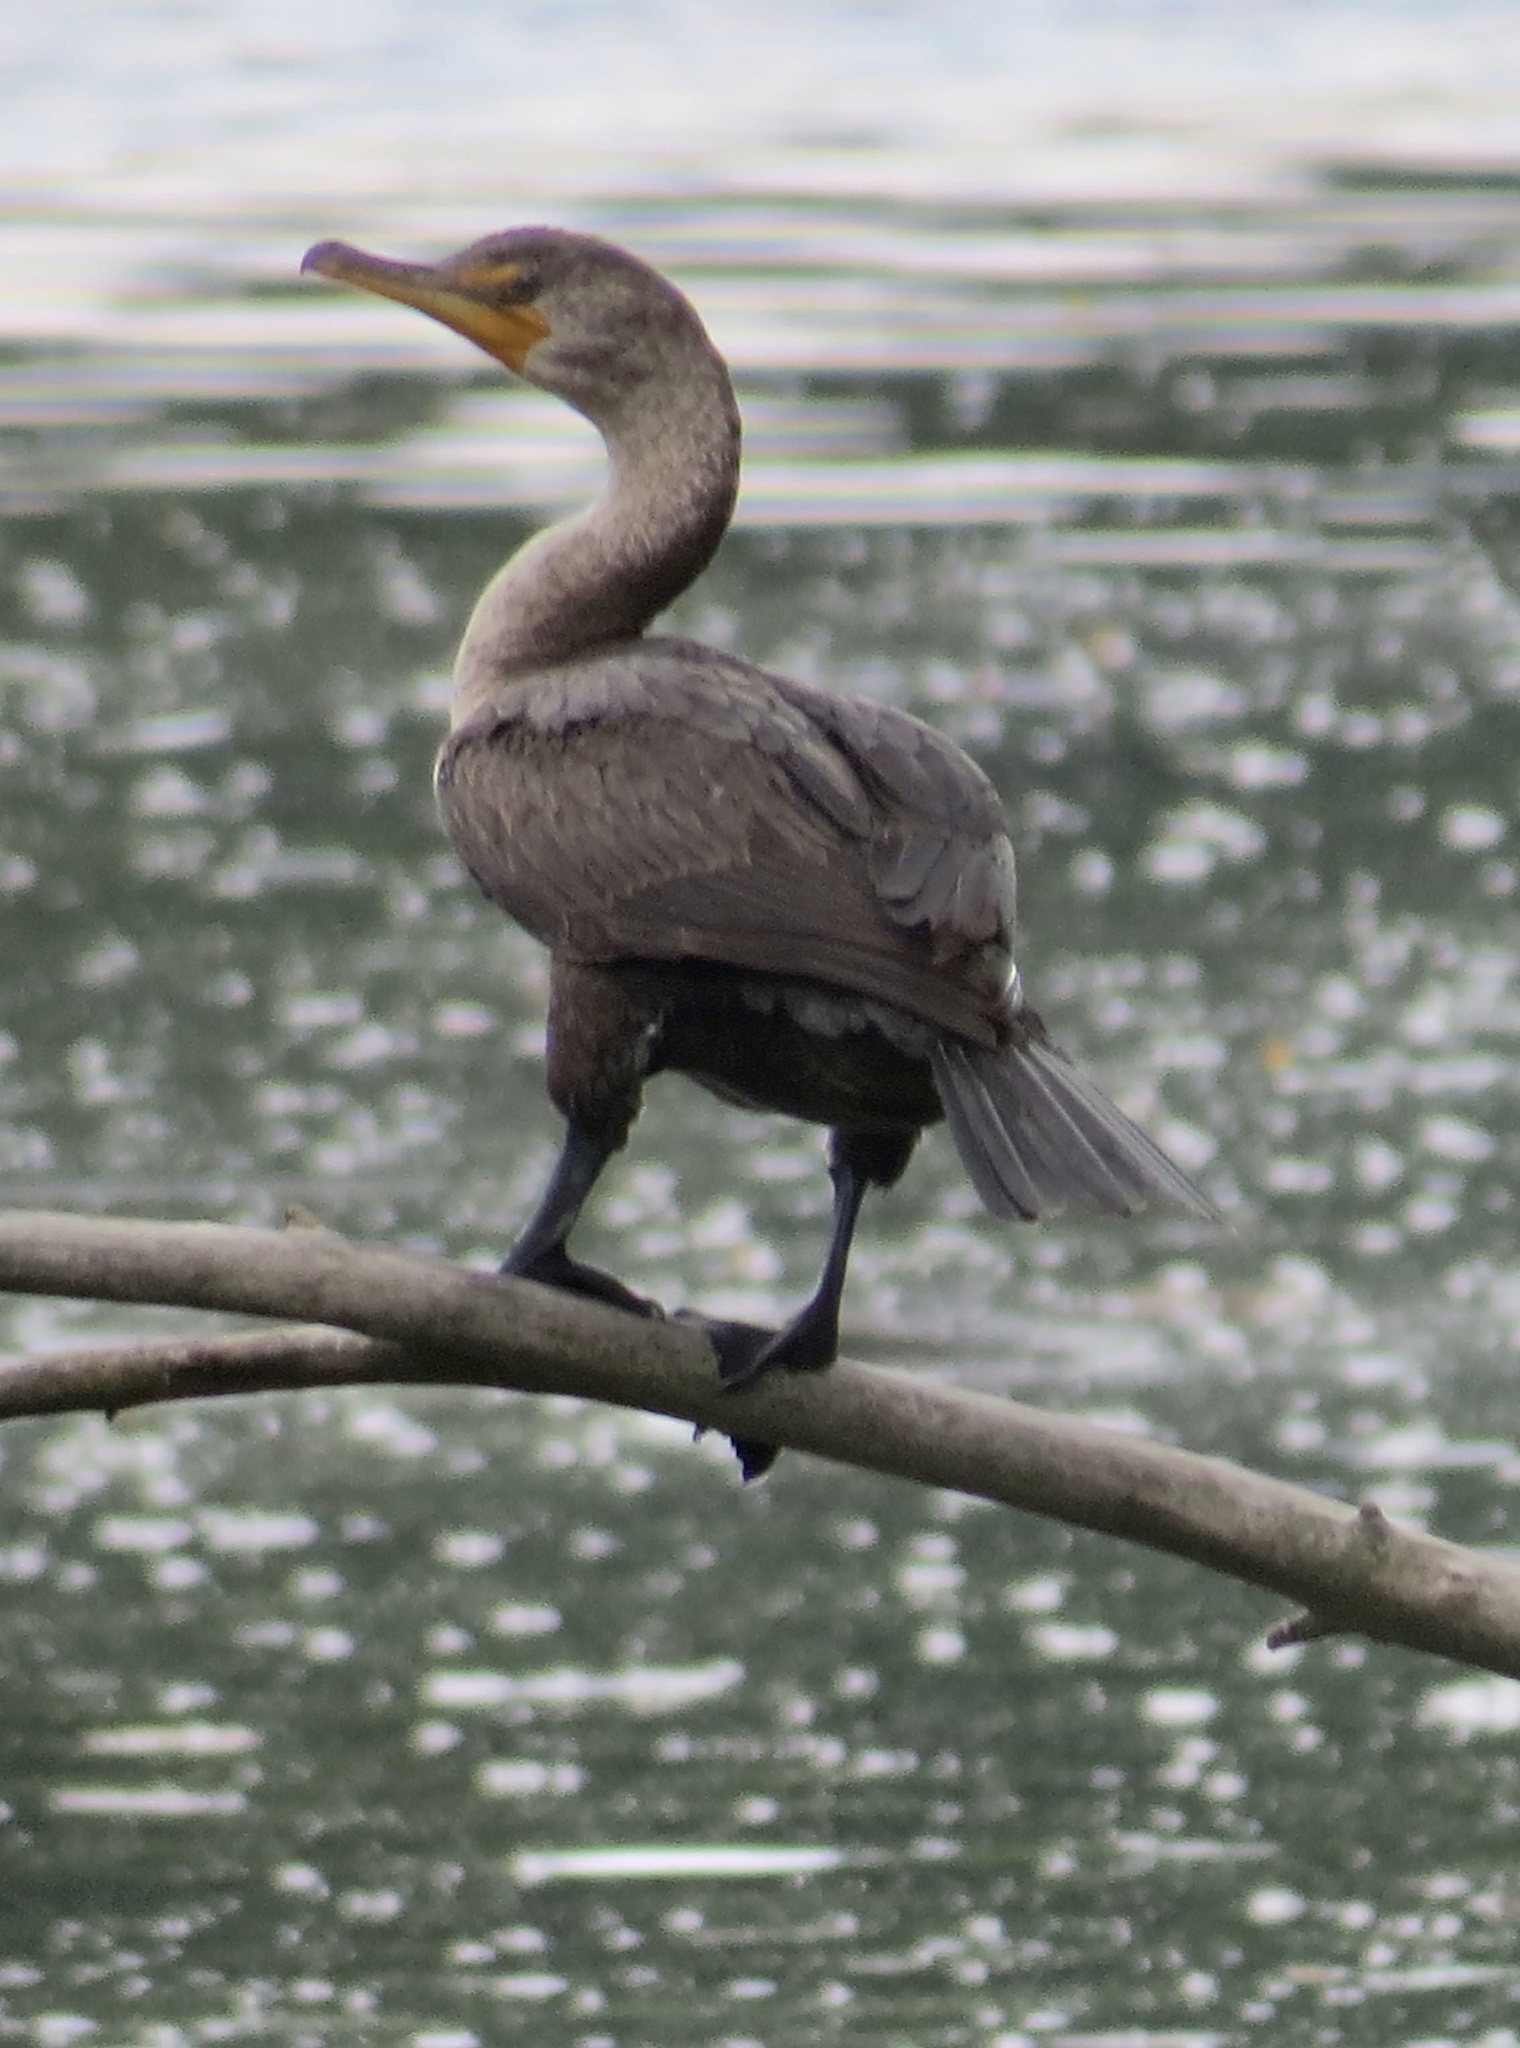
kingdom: Animalia
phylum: Chordata
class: Aves
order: Suliformes
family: Phalacrocoracidae
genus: Phalacrocorax
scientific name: Phalacrocorax auritus
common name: Double-crested cormorant
